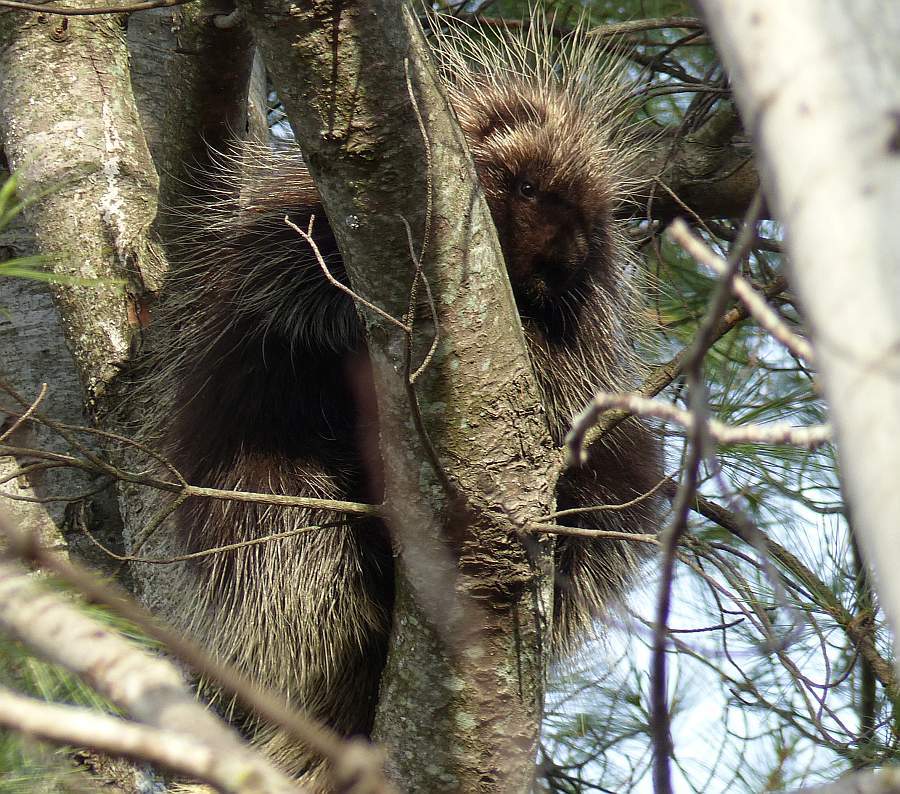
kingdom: Animalia
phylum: Chordata
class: Mammalia
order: Rodentia
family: Erethizontidae
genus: Erethizon
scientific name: Erethizon dorsatus
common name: North american porcupine
